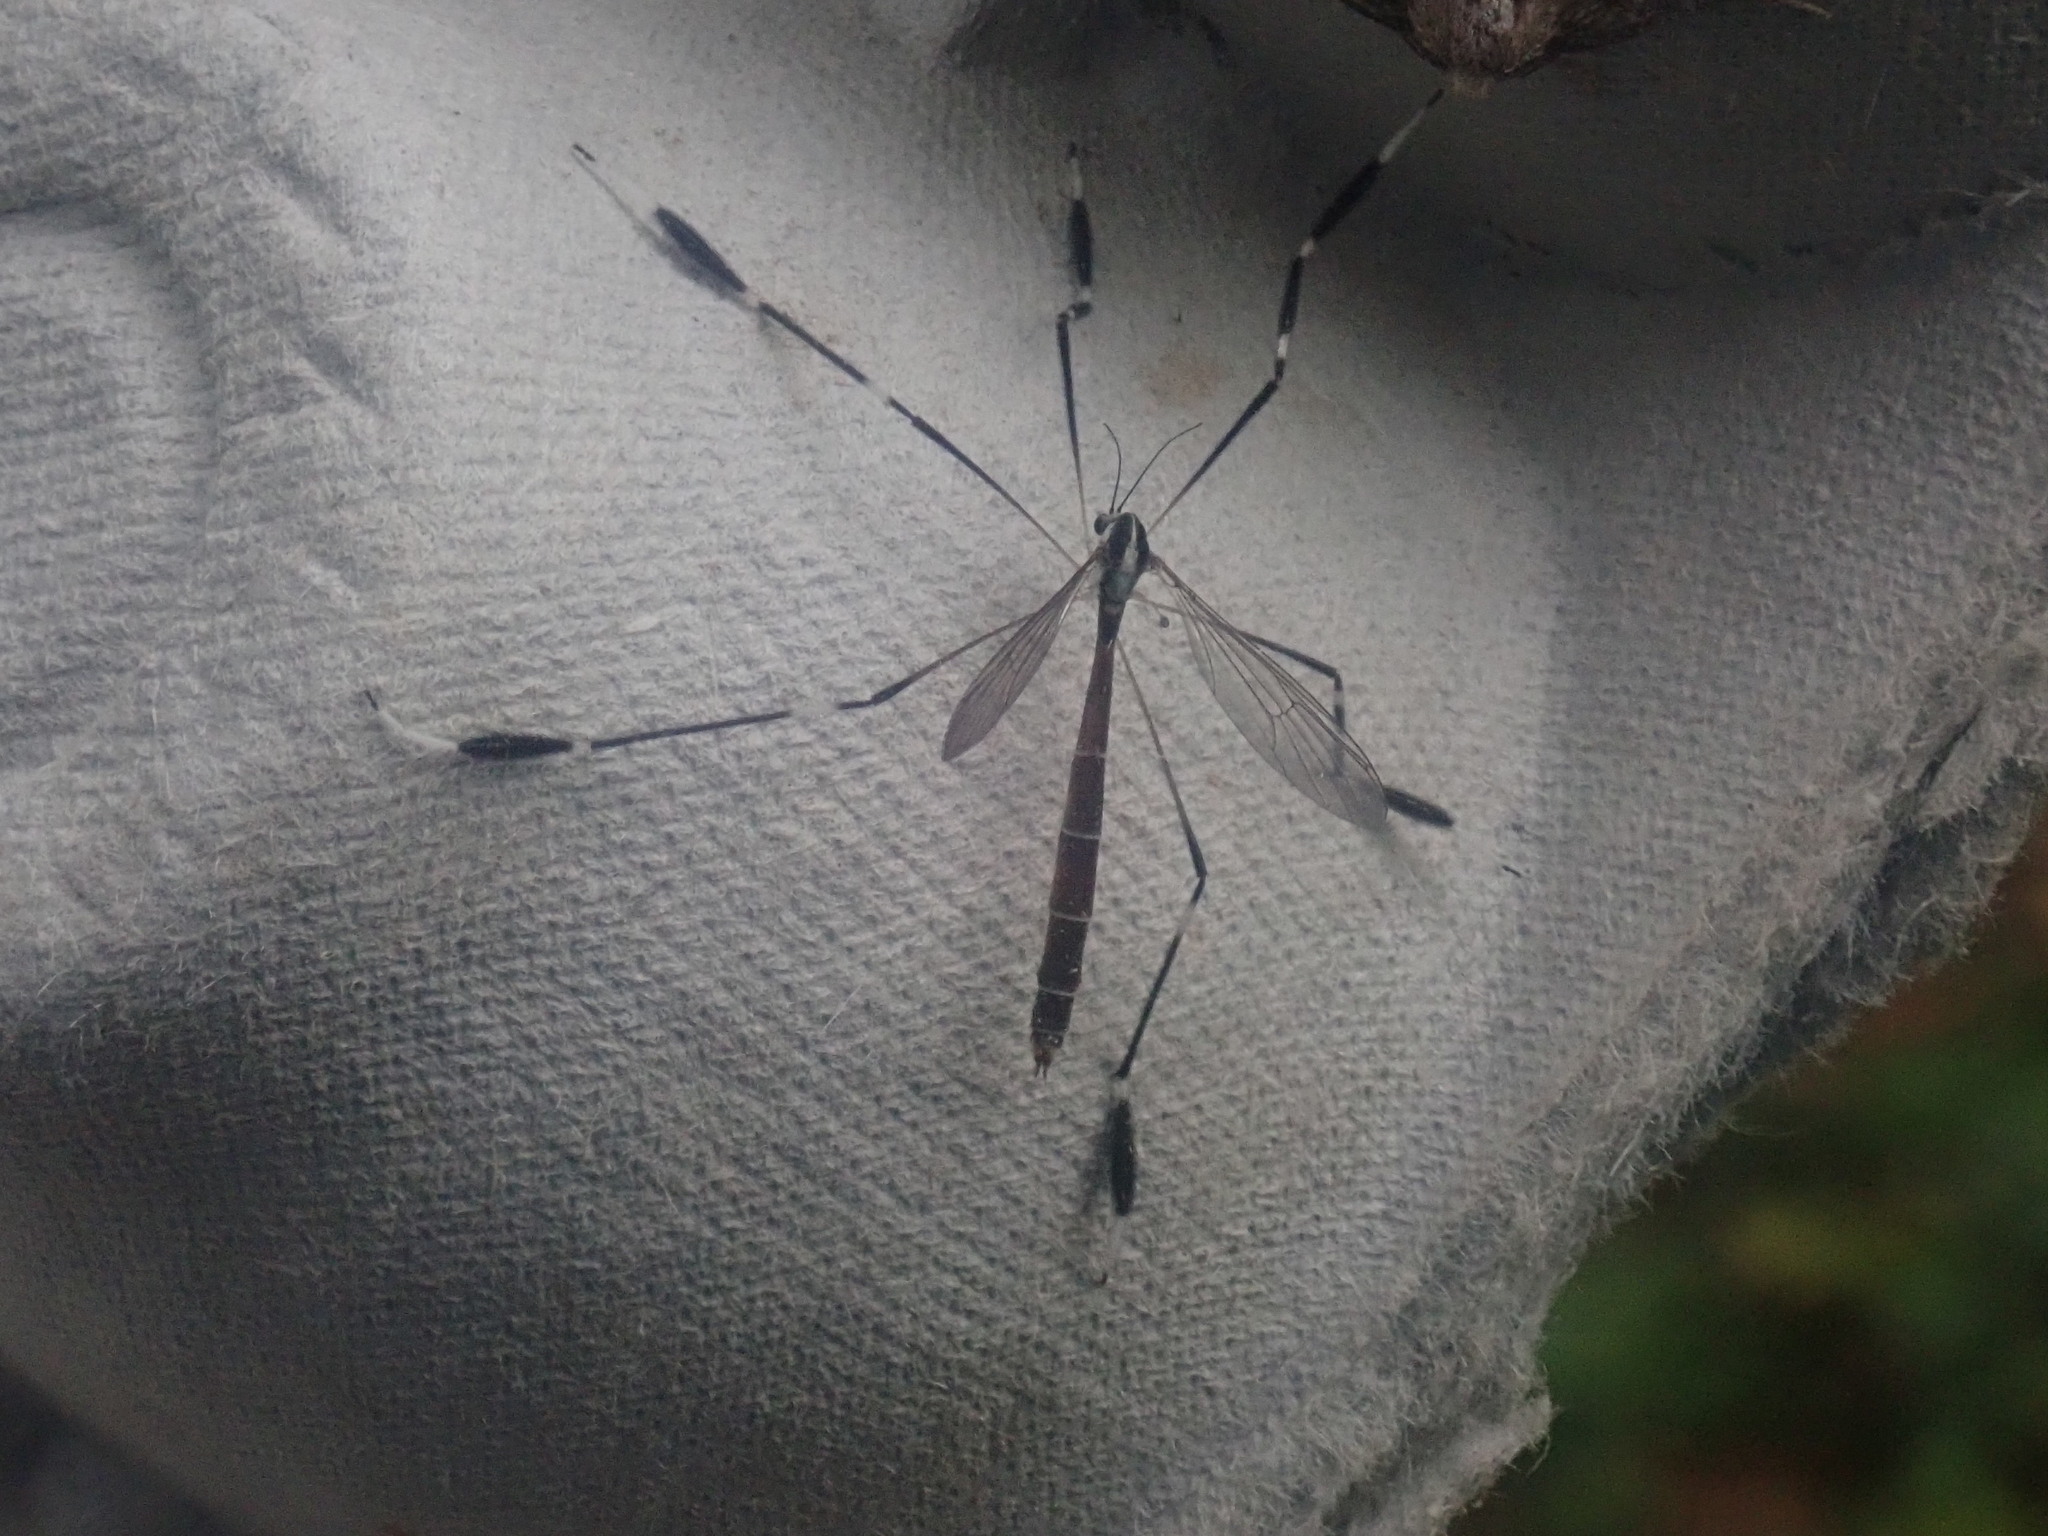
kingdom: Animalia
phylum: Arthropoda
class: Insecta
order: Diptera
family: Ptychopteridae
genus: Bittacomorpha
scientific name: Bittacomorpha clavipes
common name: Eastern phantom crane fly
